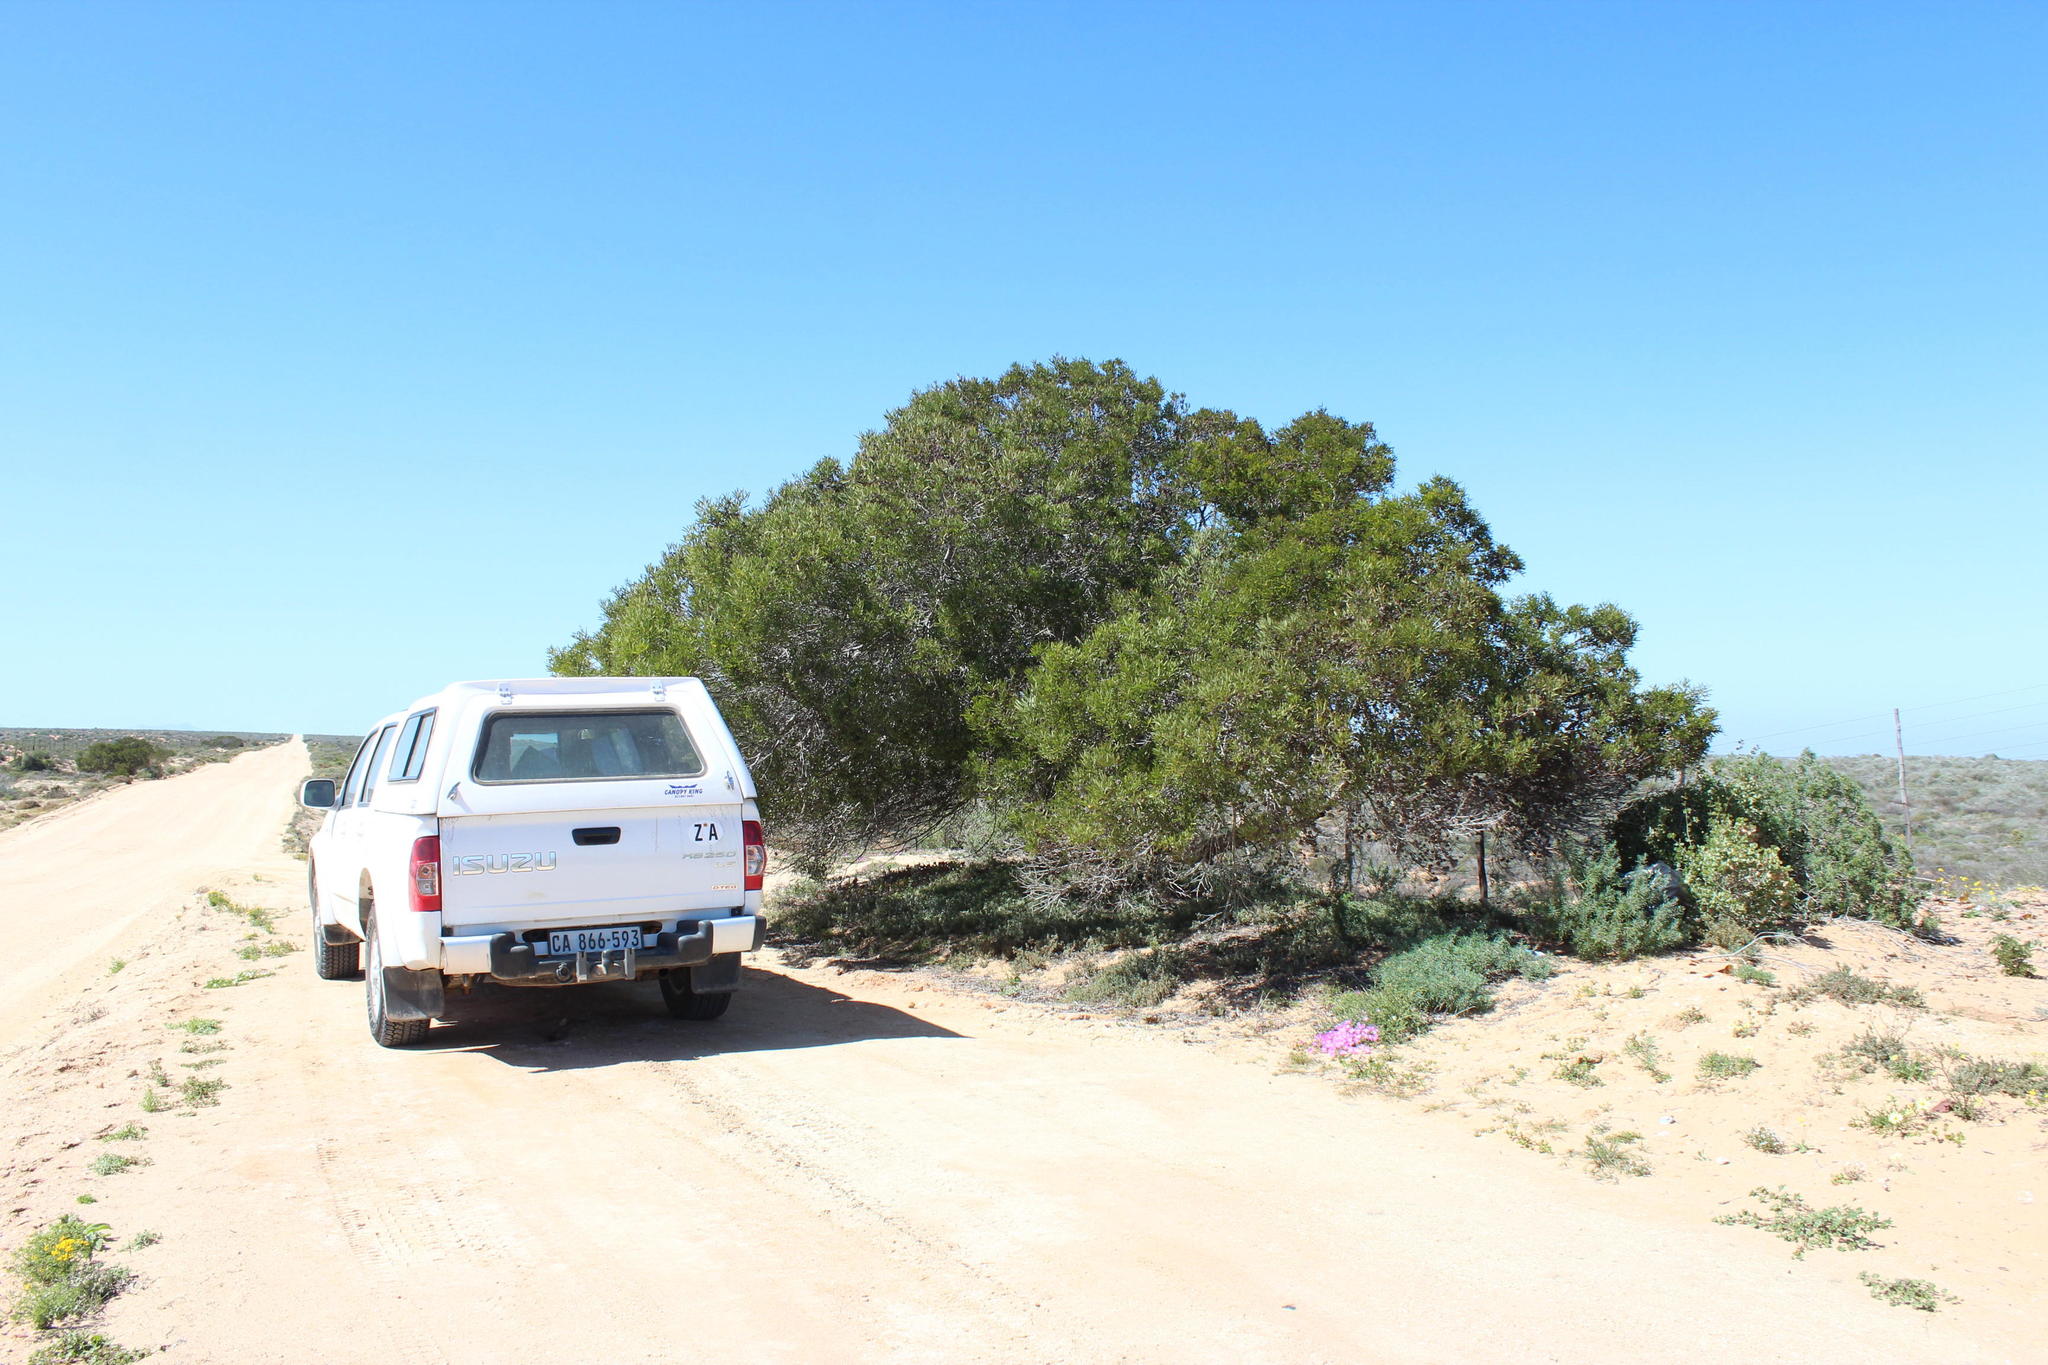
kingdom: Plantae
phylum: Tracheophyta
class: Magnoliopsida
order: Fabales
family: Fabaceae
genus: Acacia
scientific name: Acacia cyclops
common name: Coastal wattle
